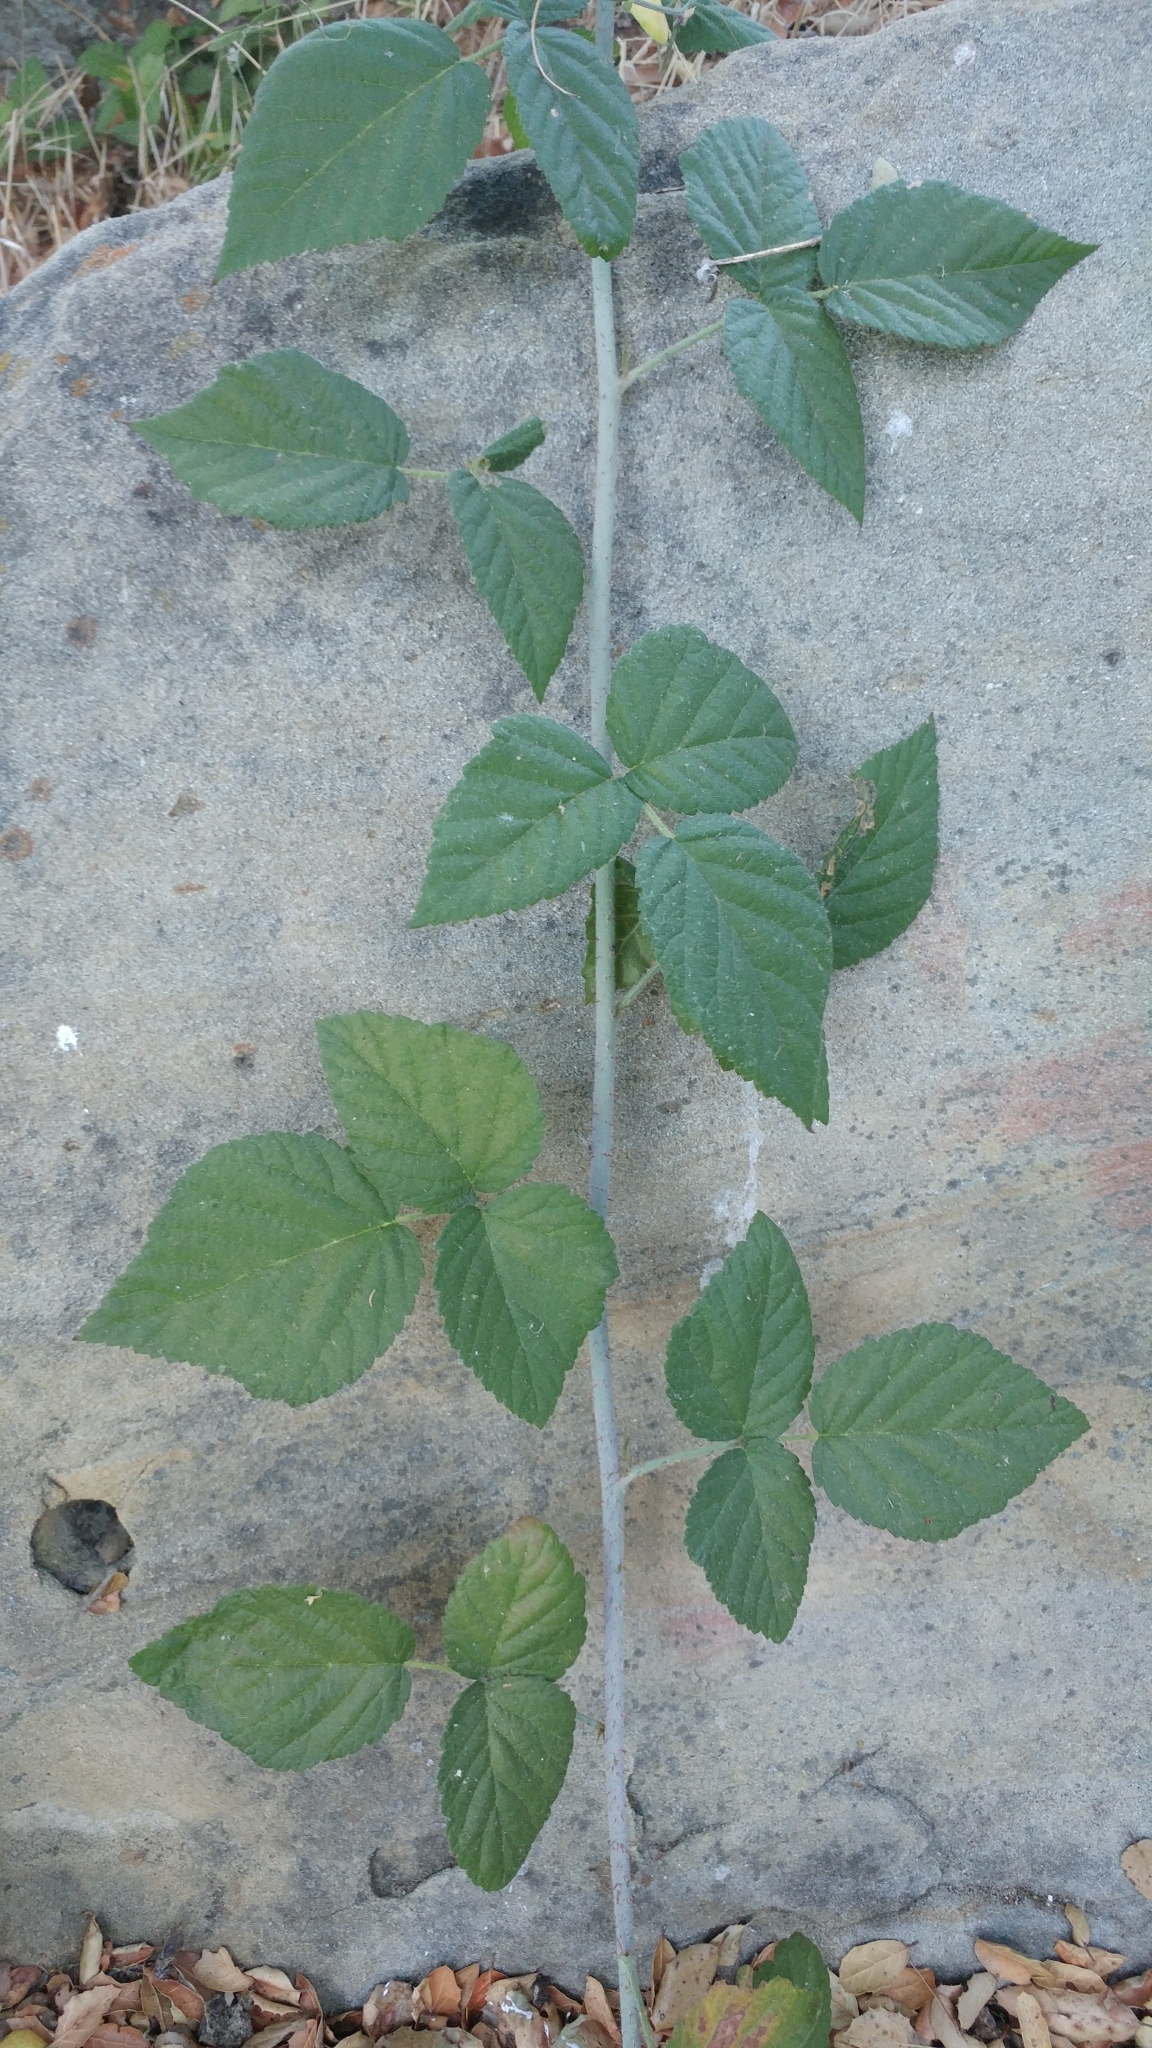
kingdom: Plantae
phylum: Tracheophyta
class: Magnoliopsida
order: Rosales
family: Rosaceae
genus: Rubus
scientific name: Rubus ursinus
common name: Pacific blackberry
